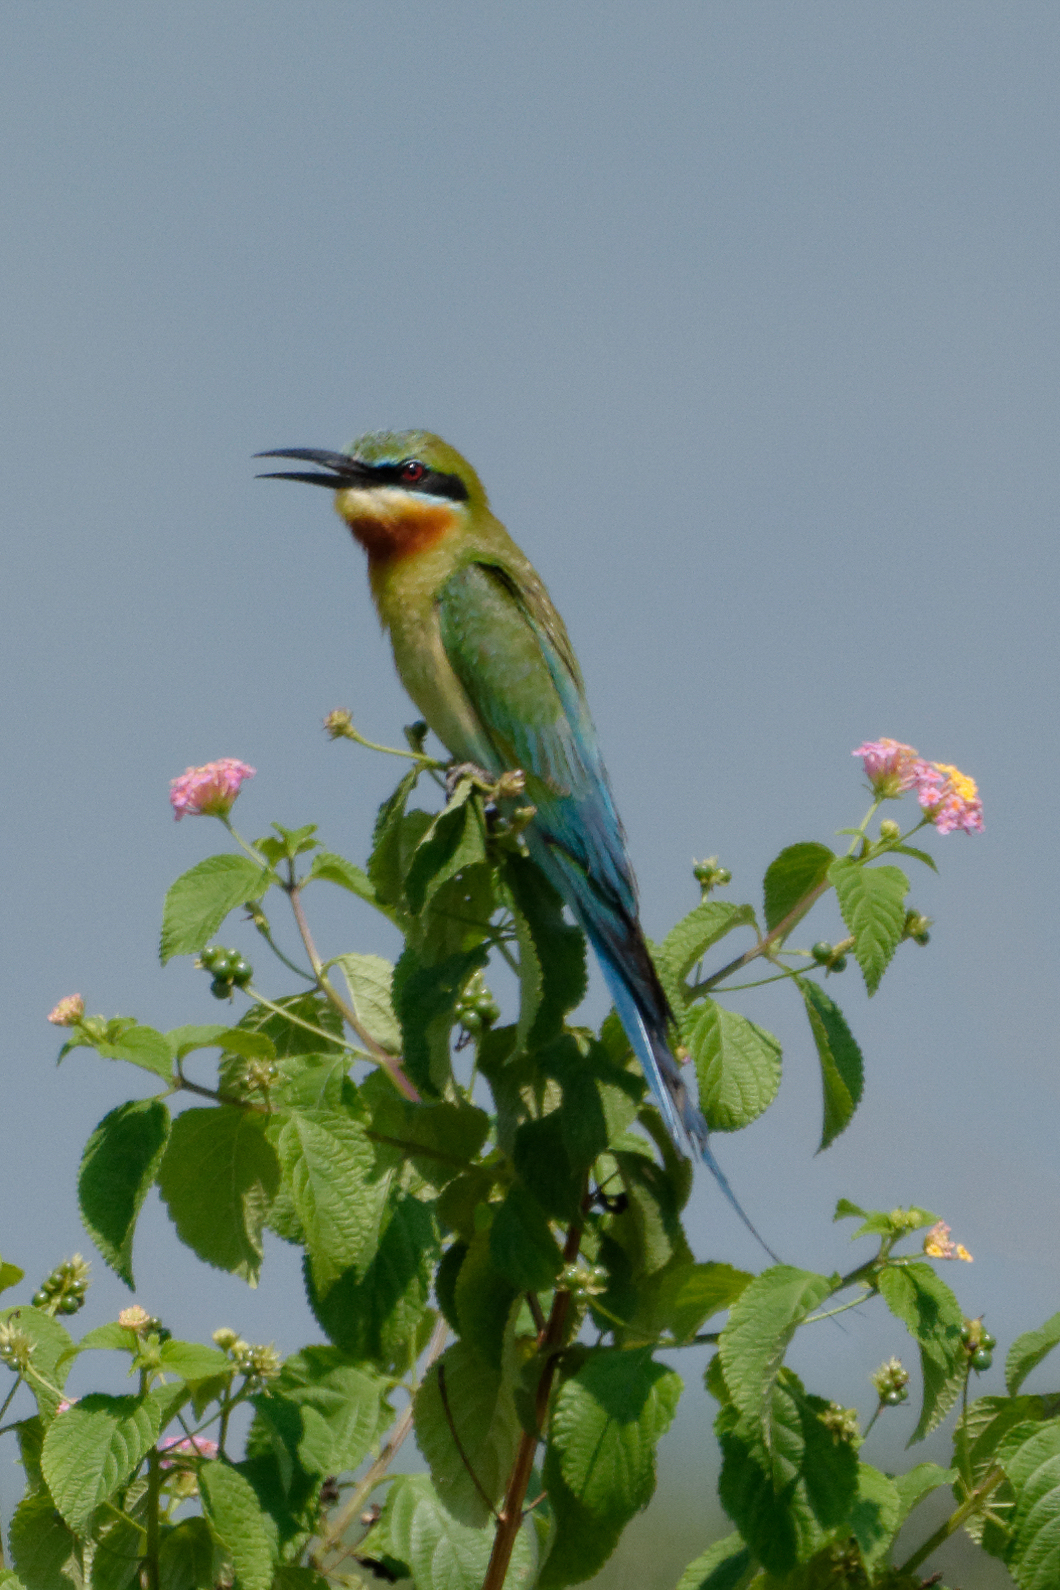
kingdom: Animalia
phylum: Chordata
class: Aves
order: Coraciiformes
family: Meropidae
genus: Merops
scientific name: Merops philippinus
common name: Blue-tailed bee-eater
